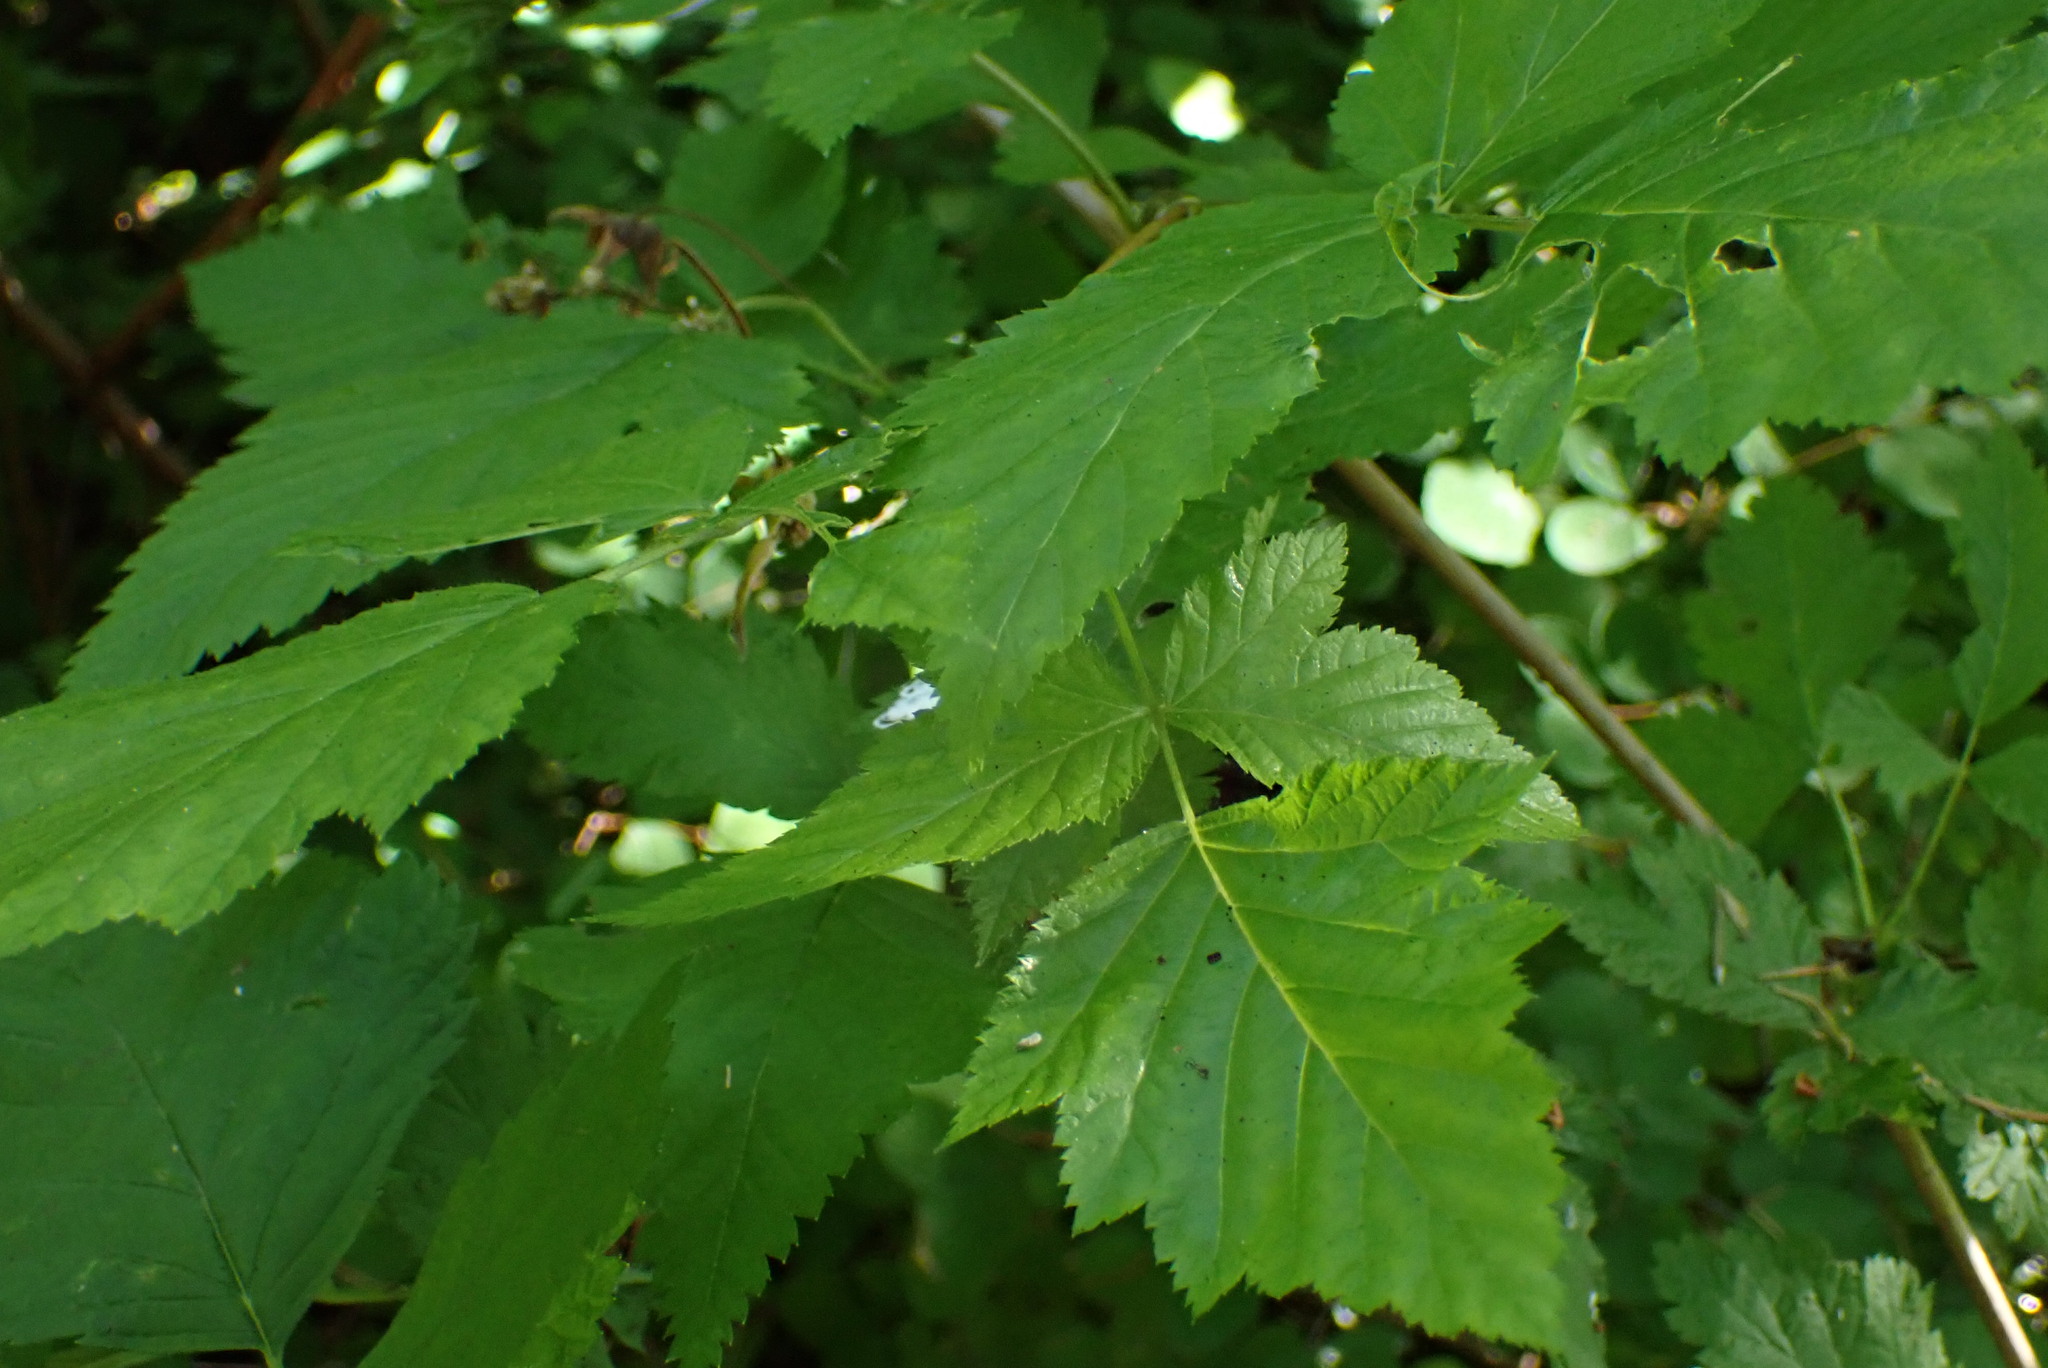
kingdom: Plantae
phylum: Tracheophyta
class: Magnoliopsida
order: Rosales
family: Rosaceae
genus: Rubus
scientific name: Rubus spectabilis
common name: Salmonberry
